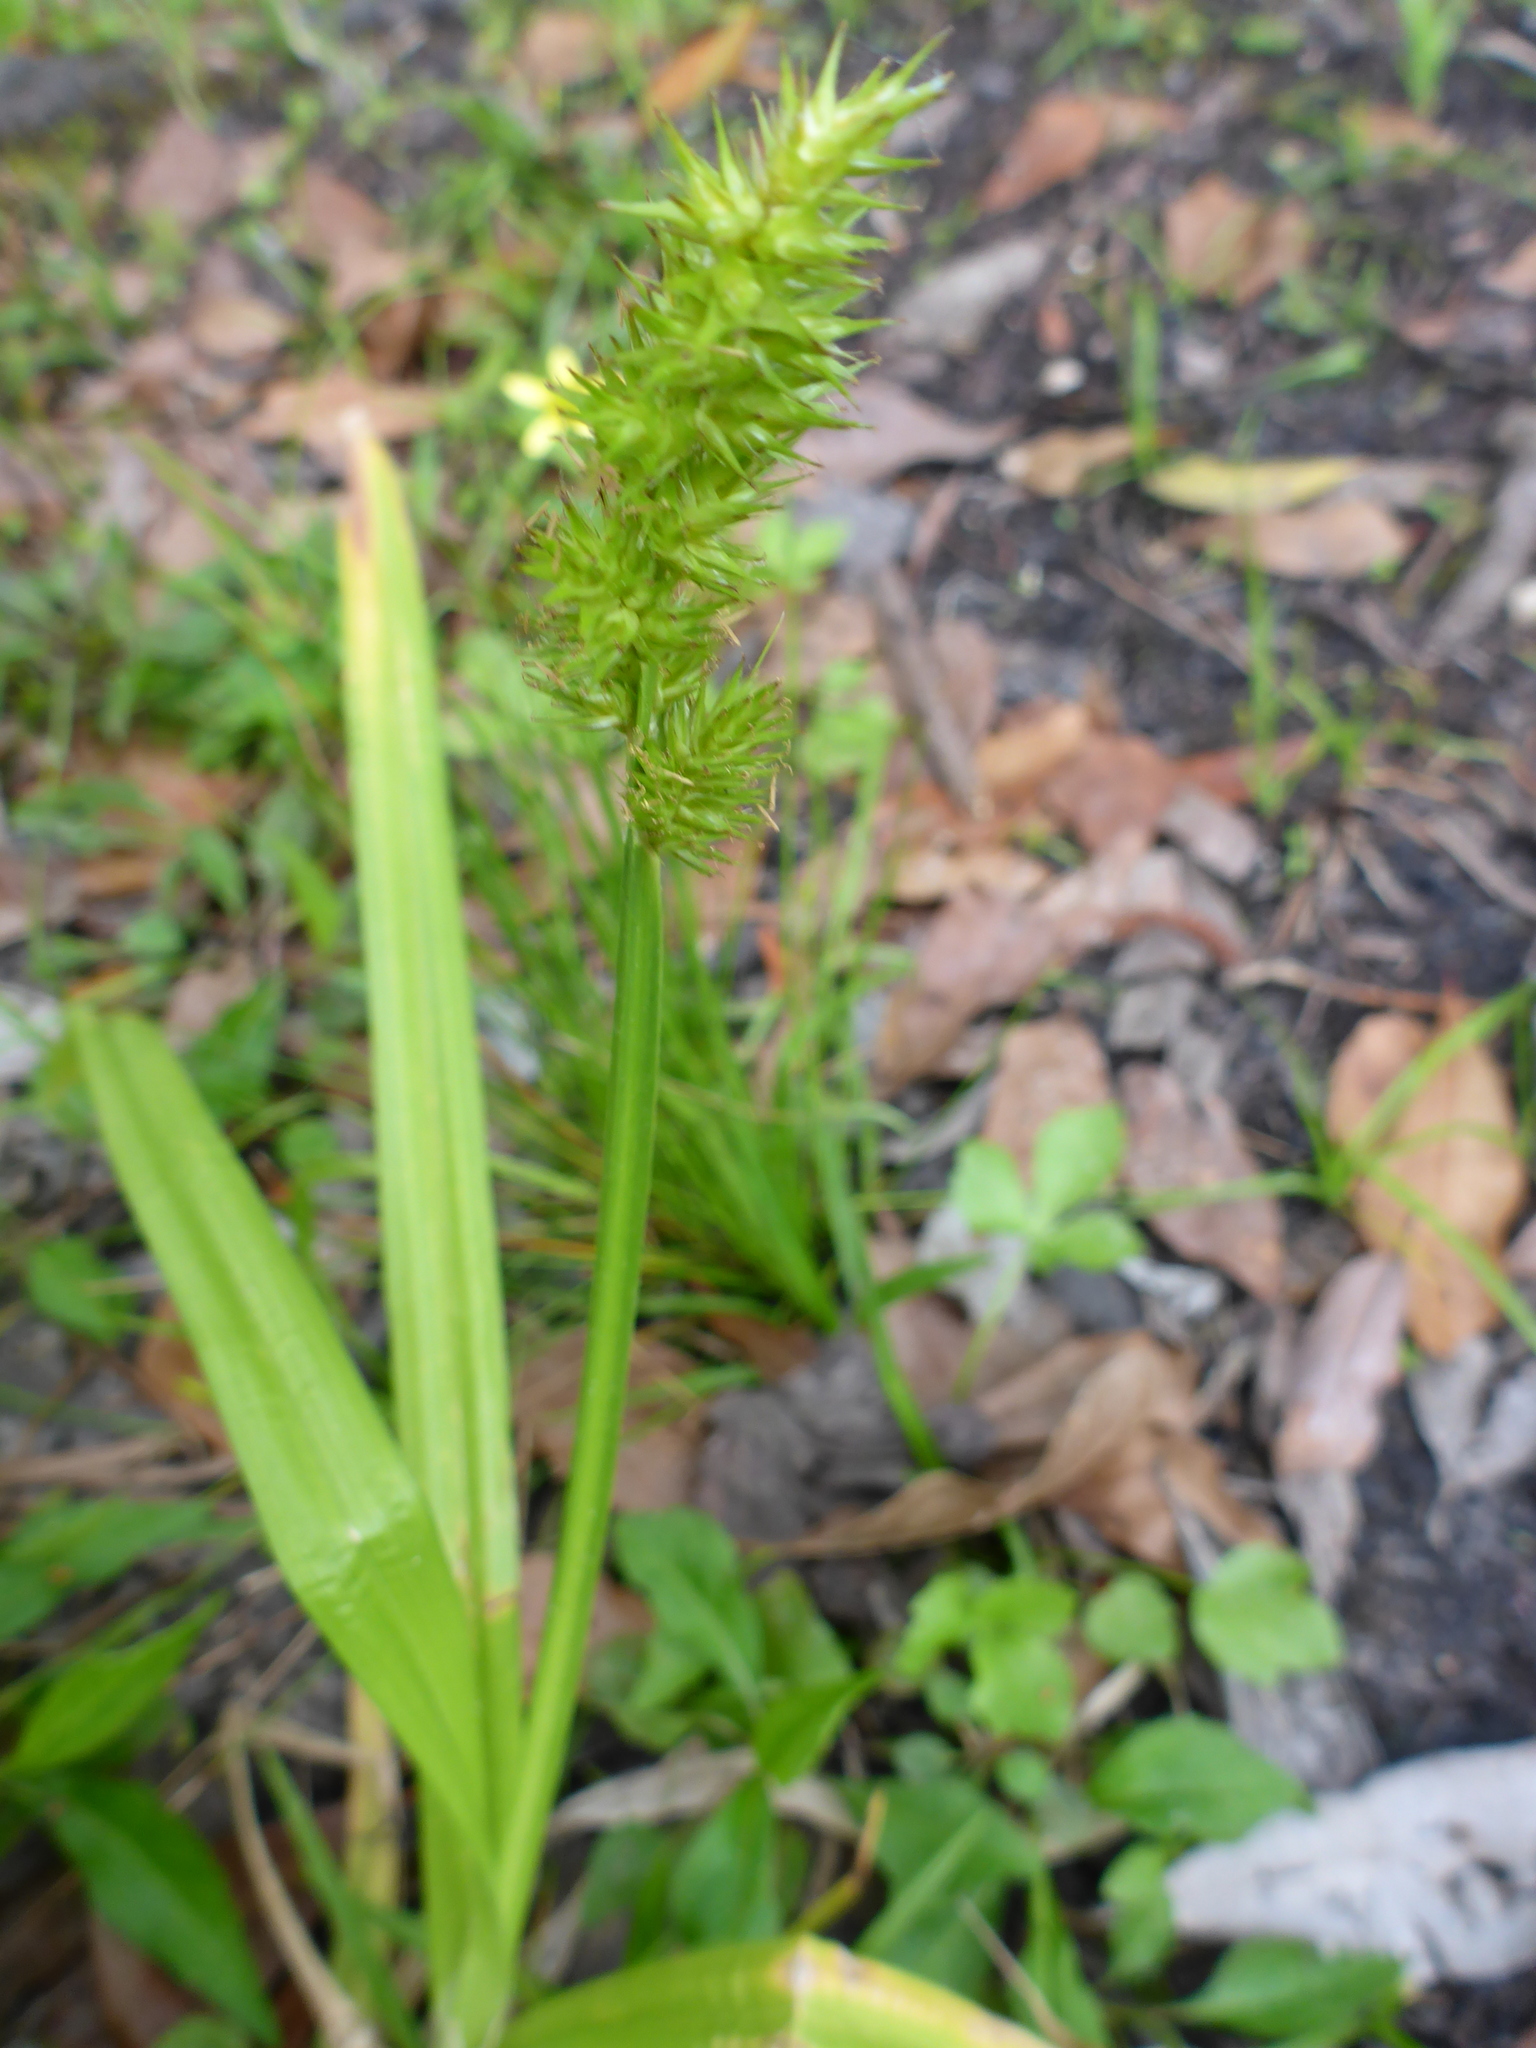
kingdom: Plantae
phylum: Tracheophyta
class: Liliopsida
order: Poales
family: Cyperaceae
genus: Carex
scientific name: Carex stipata
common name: Awl-fruited sedge
